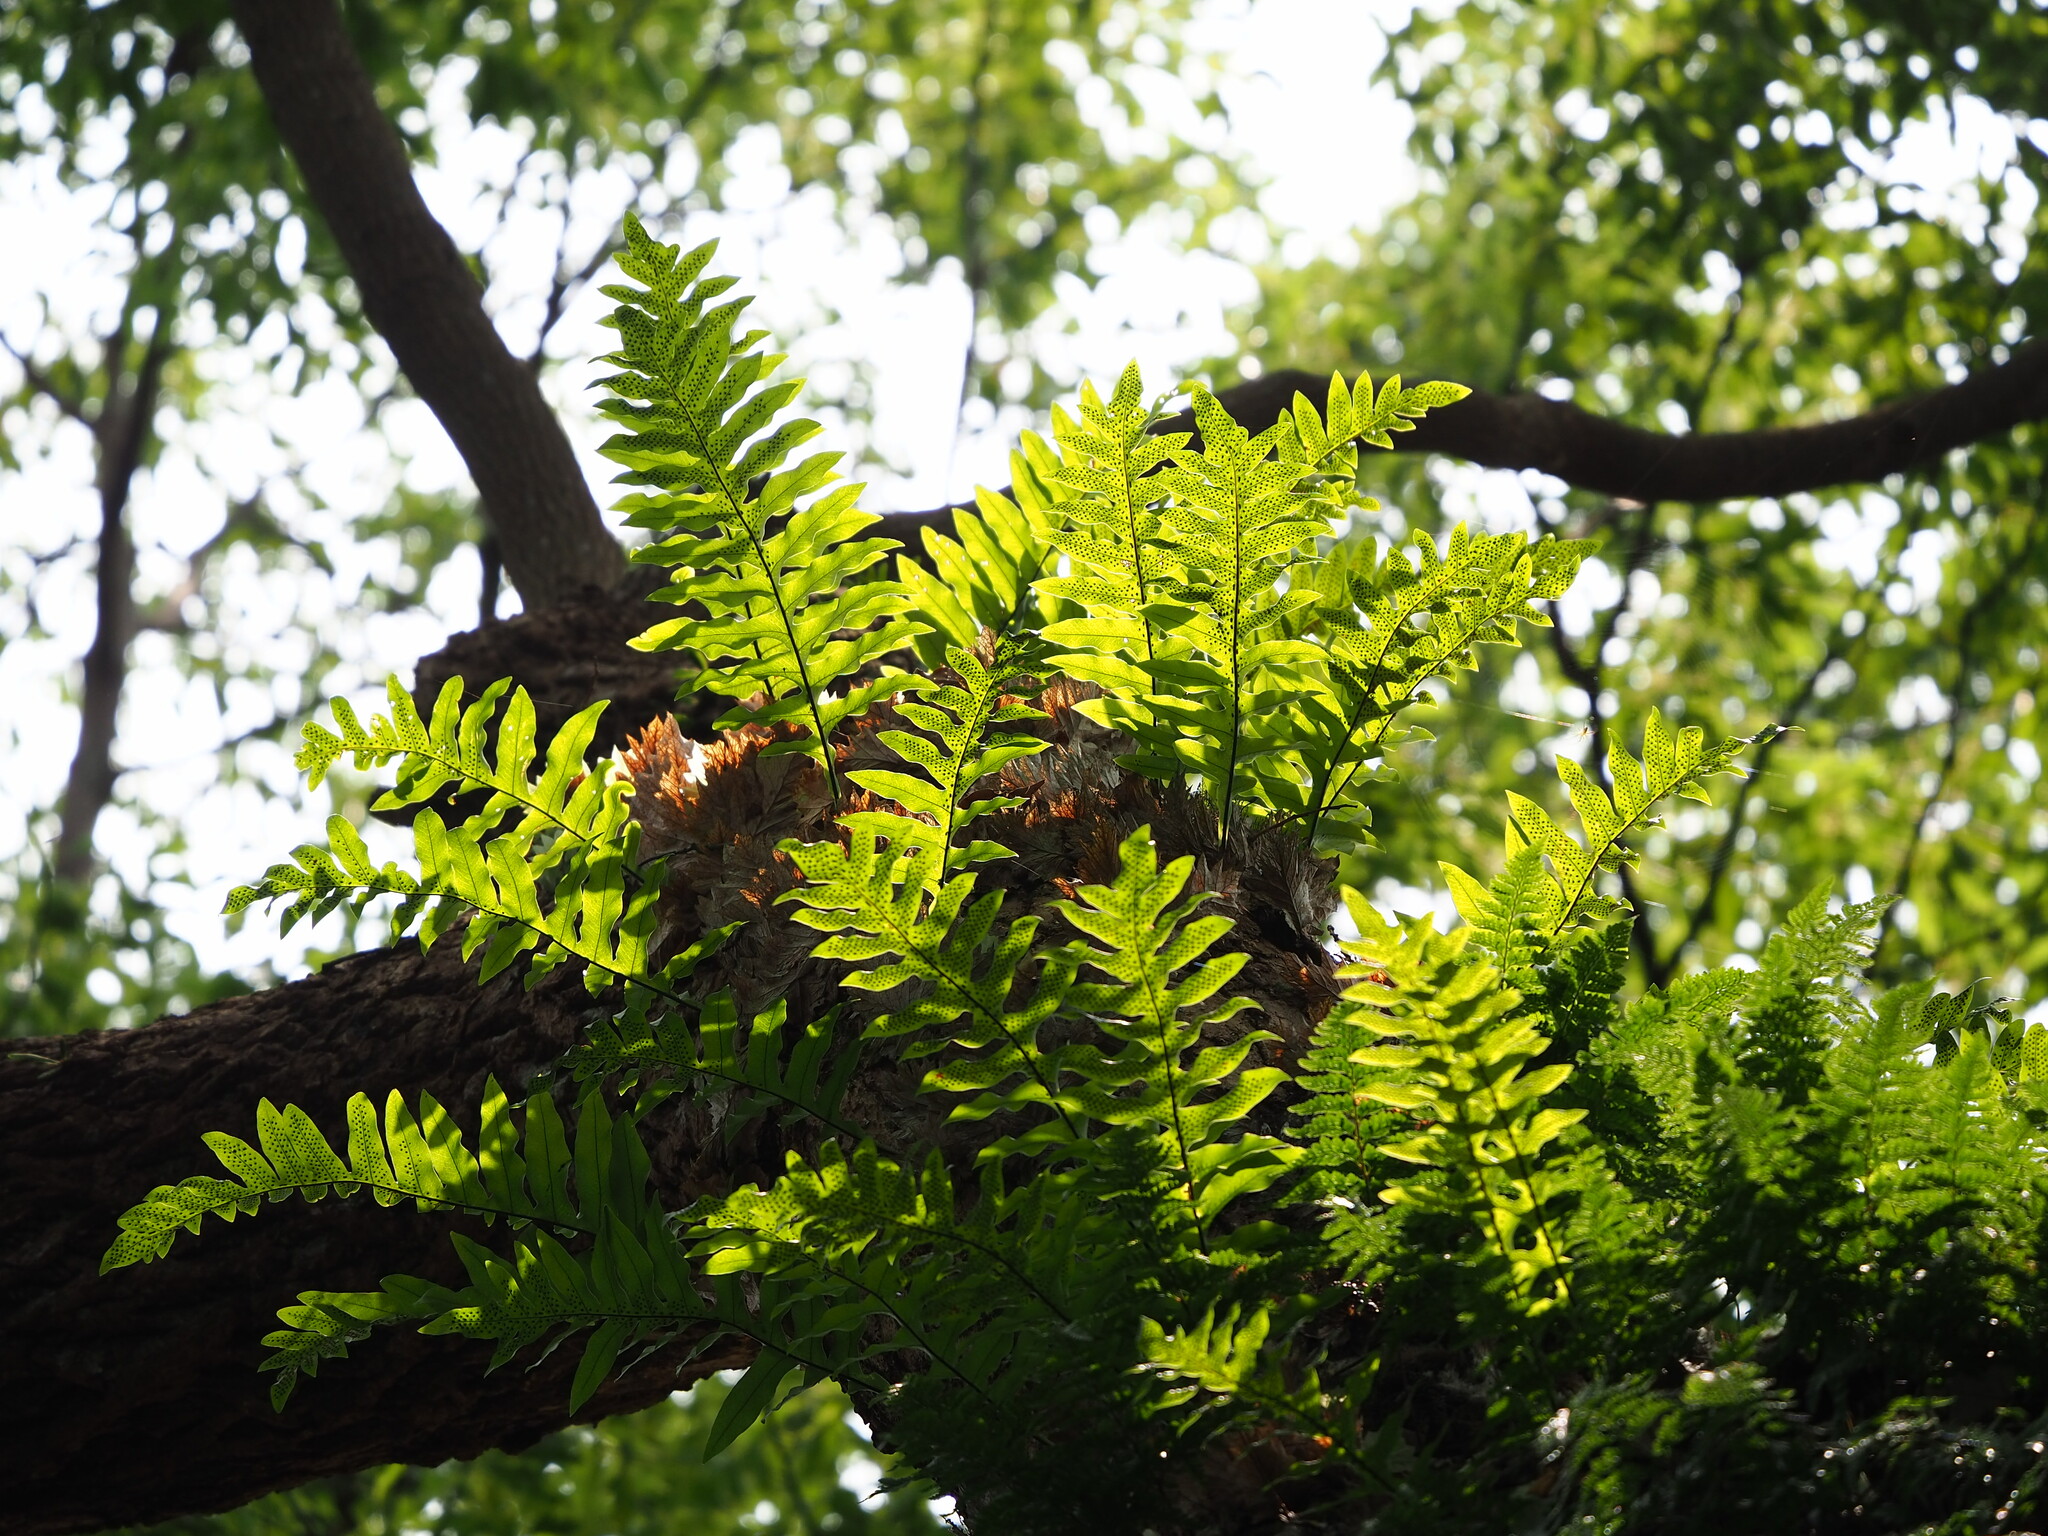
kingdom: Plantae
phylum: Tracheophyta
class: Polypodiopsida
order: Polypodiales
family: Polypodiaceae
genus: Drynaria
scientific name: Drynaria roosii
